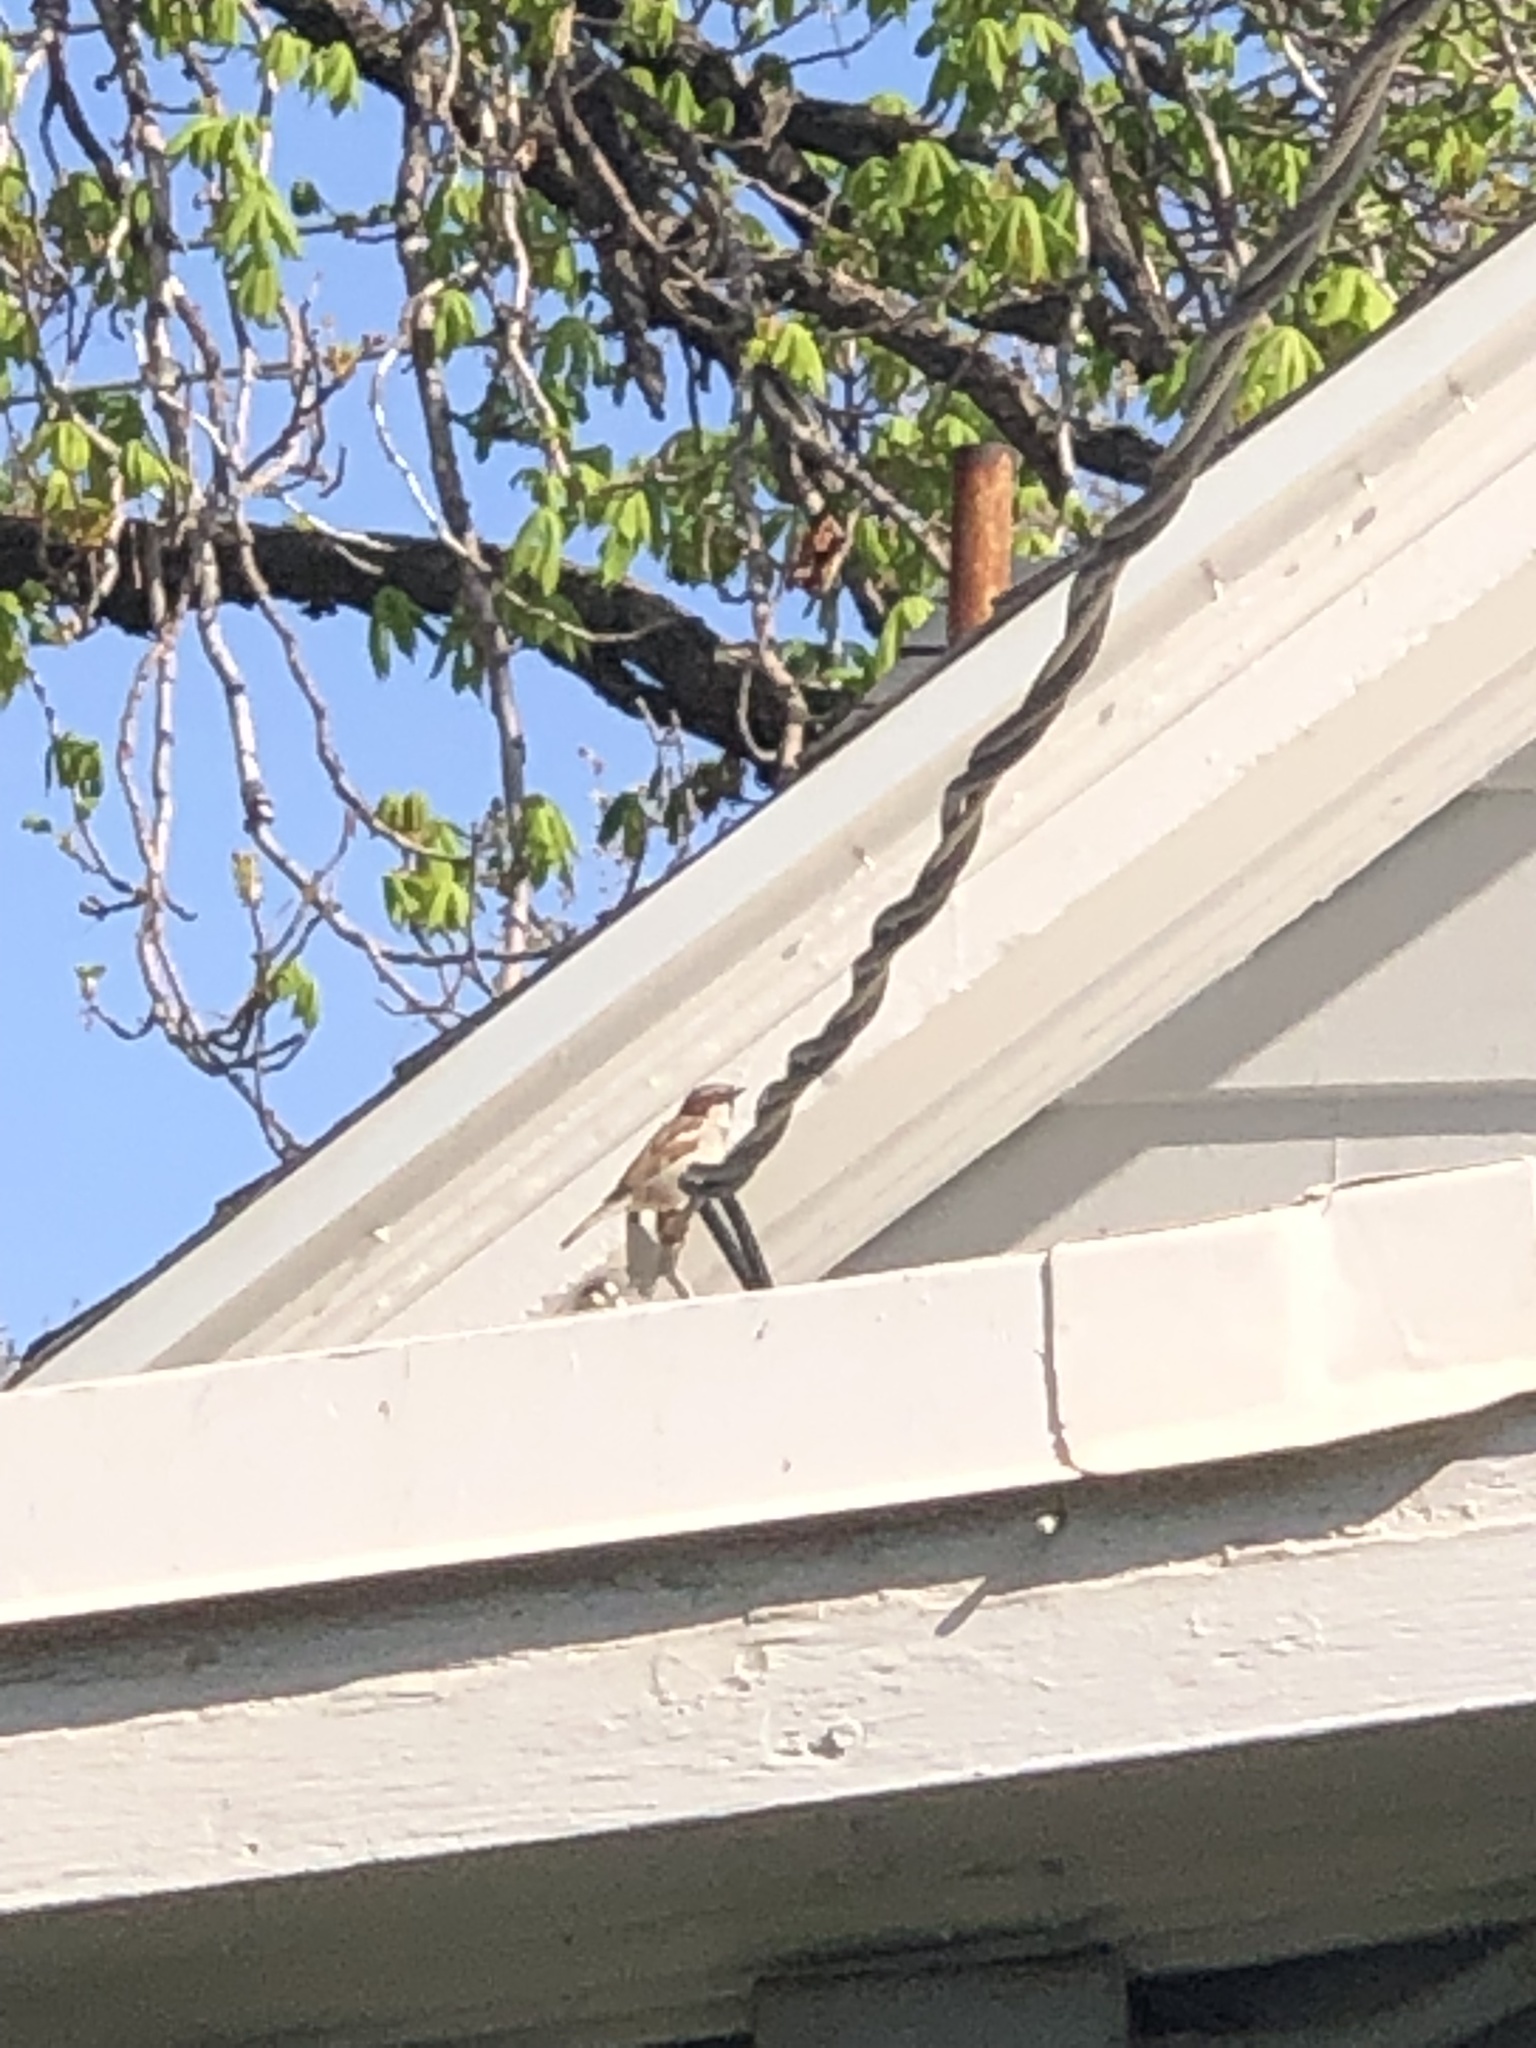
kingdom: Animalia
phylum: Chordata
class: Aves
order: Passeriformes
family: Passeridae
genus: Passer
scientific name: Passer domesticus
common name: House sparrow
